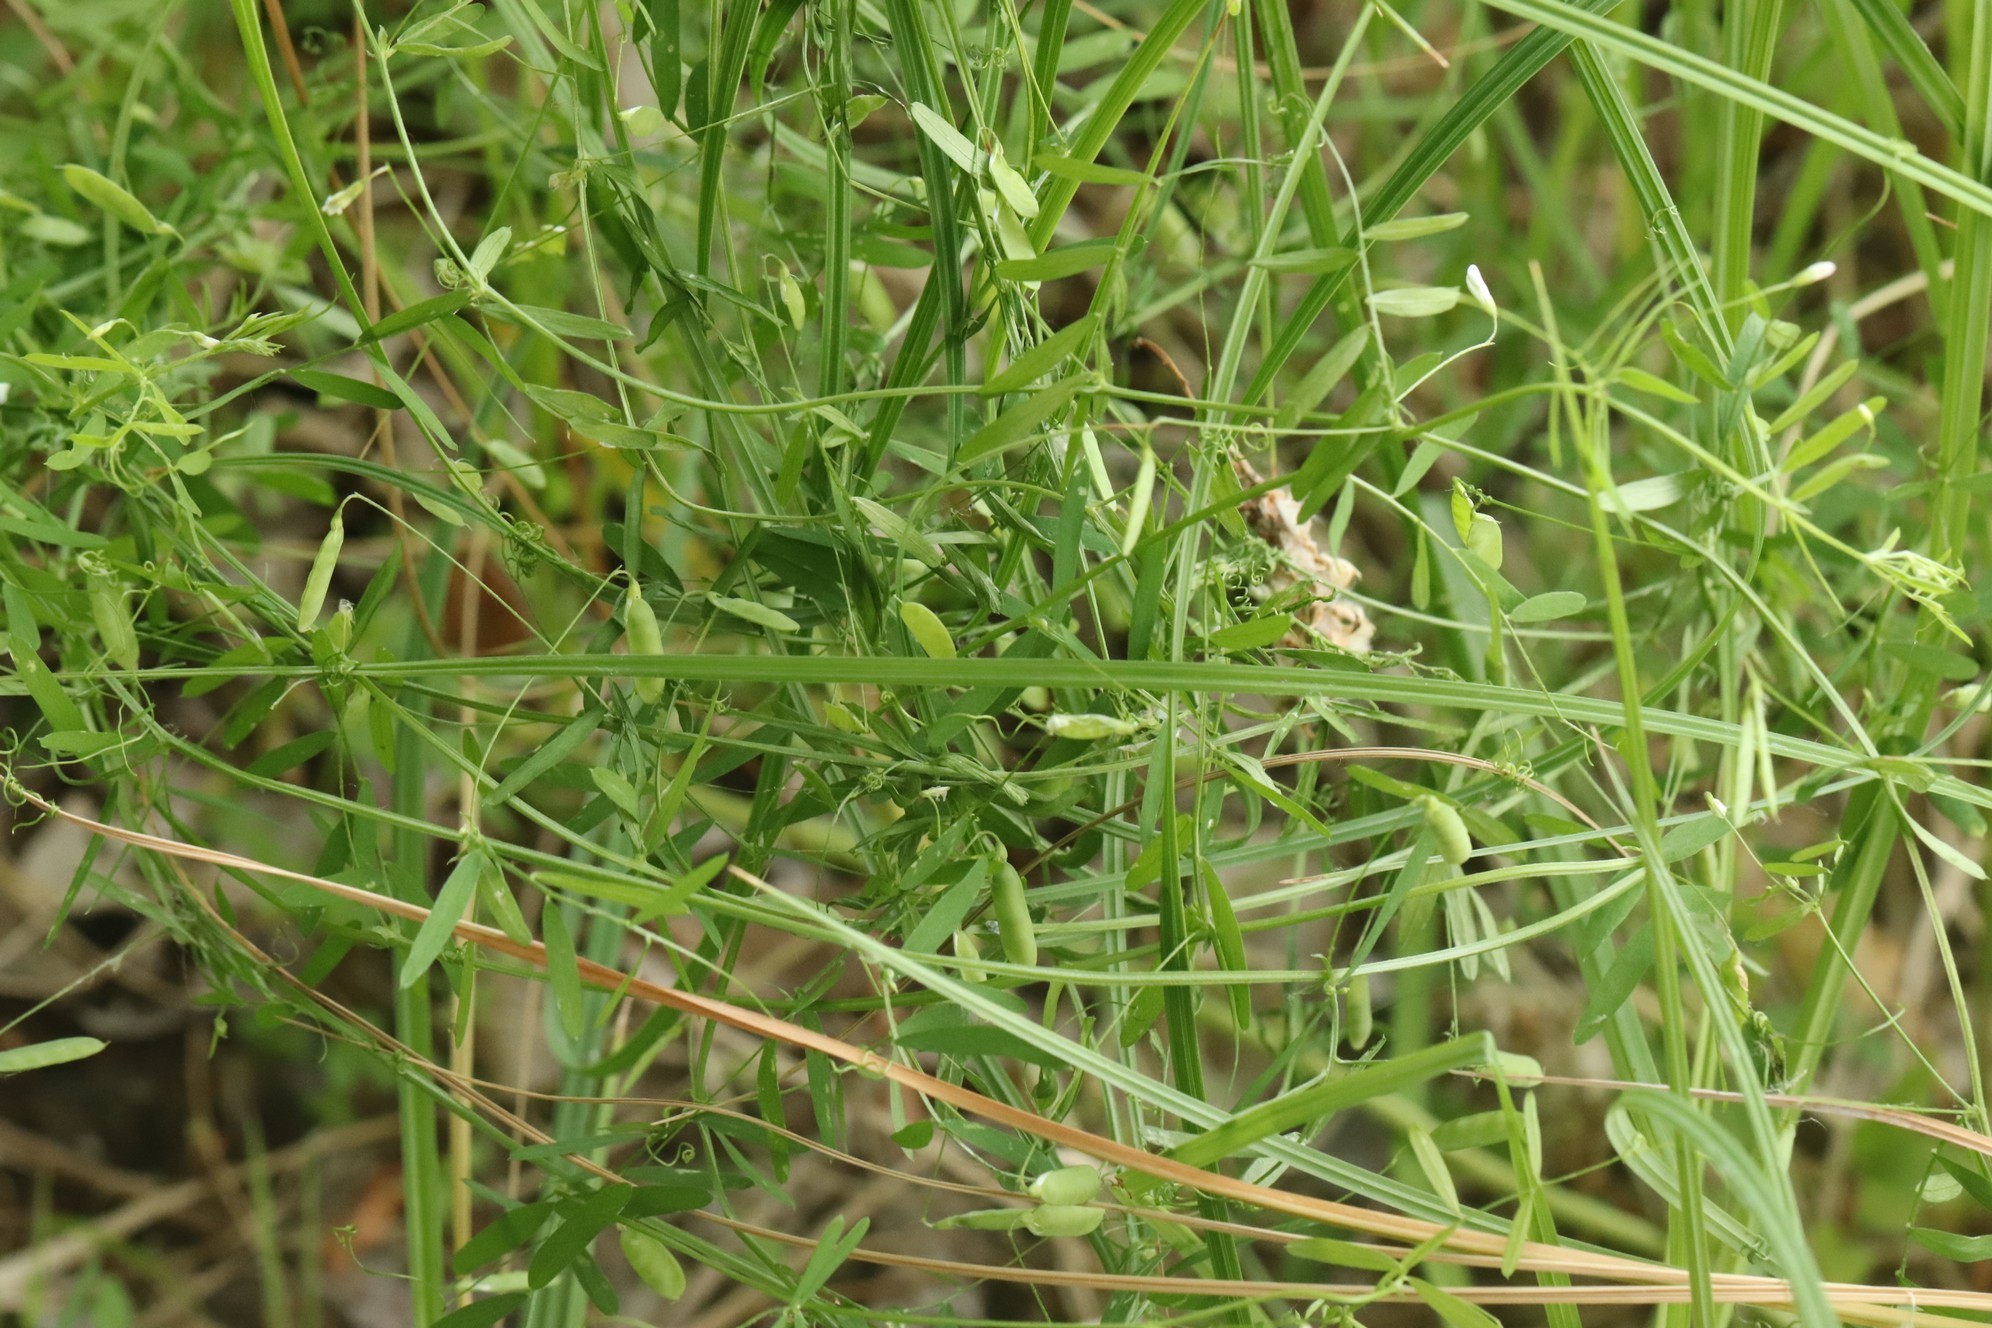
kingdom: Plantae
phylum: Tracheophyta
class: Magnoliopsida
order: Fabales
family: Fabaceae
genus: Vicia
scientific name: Vicia tetrasperma
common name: Smooth tare
